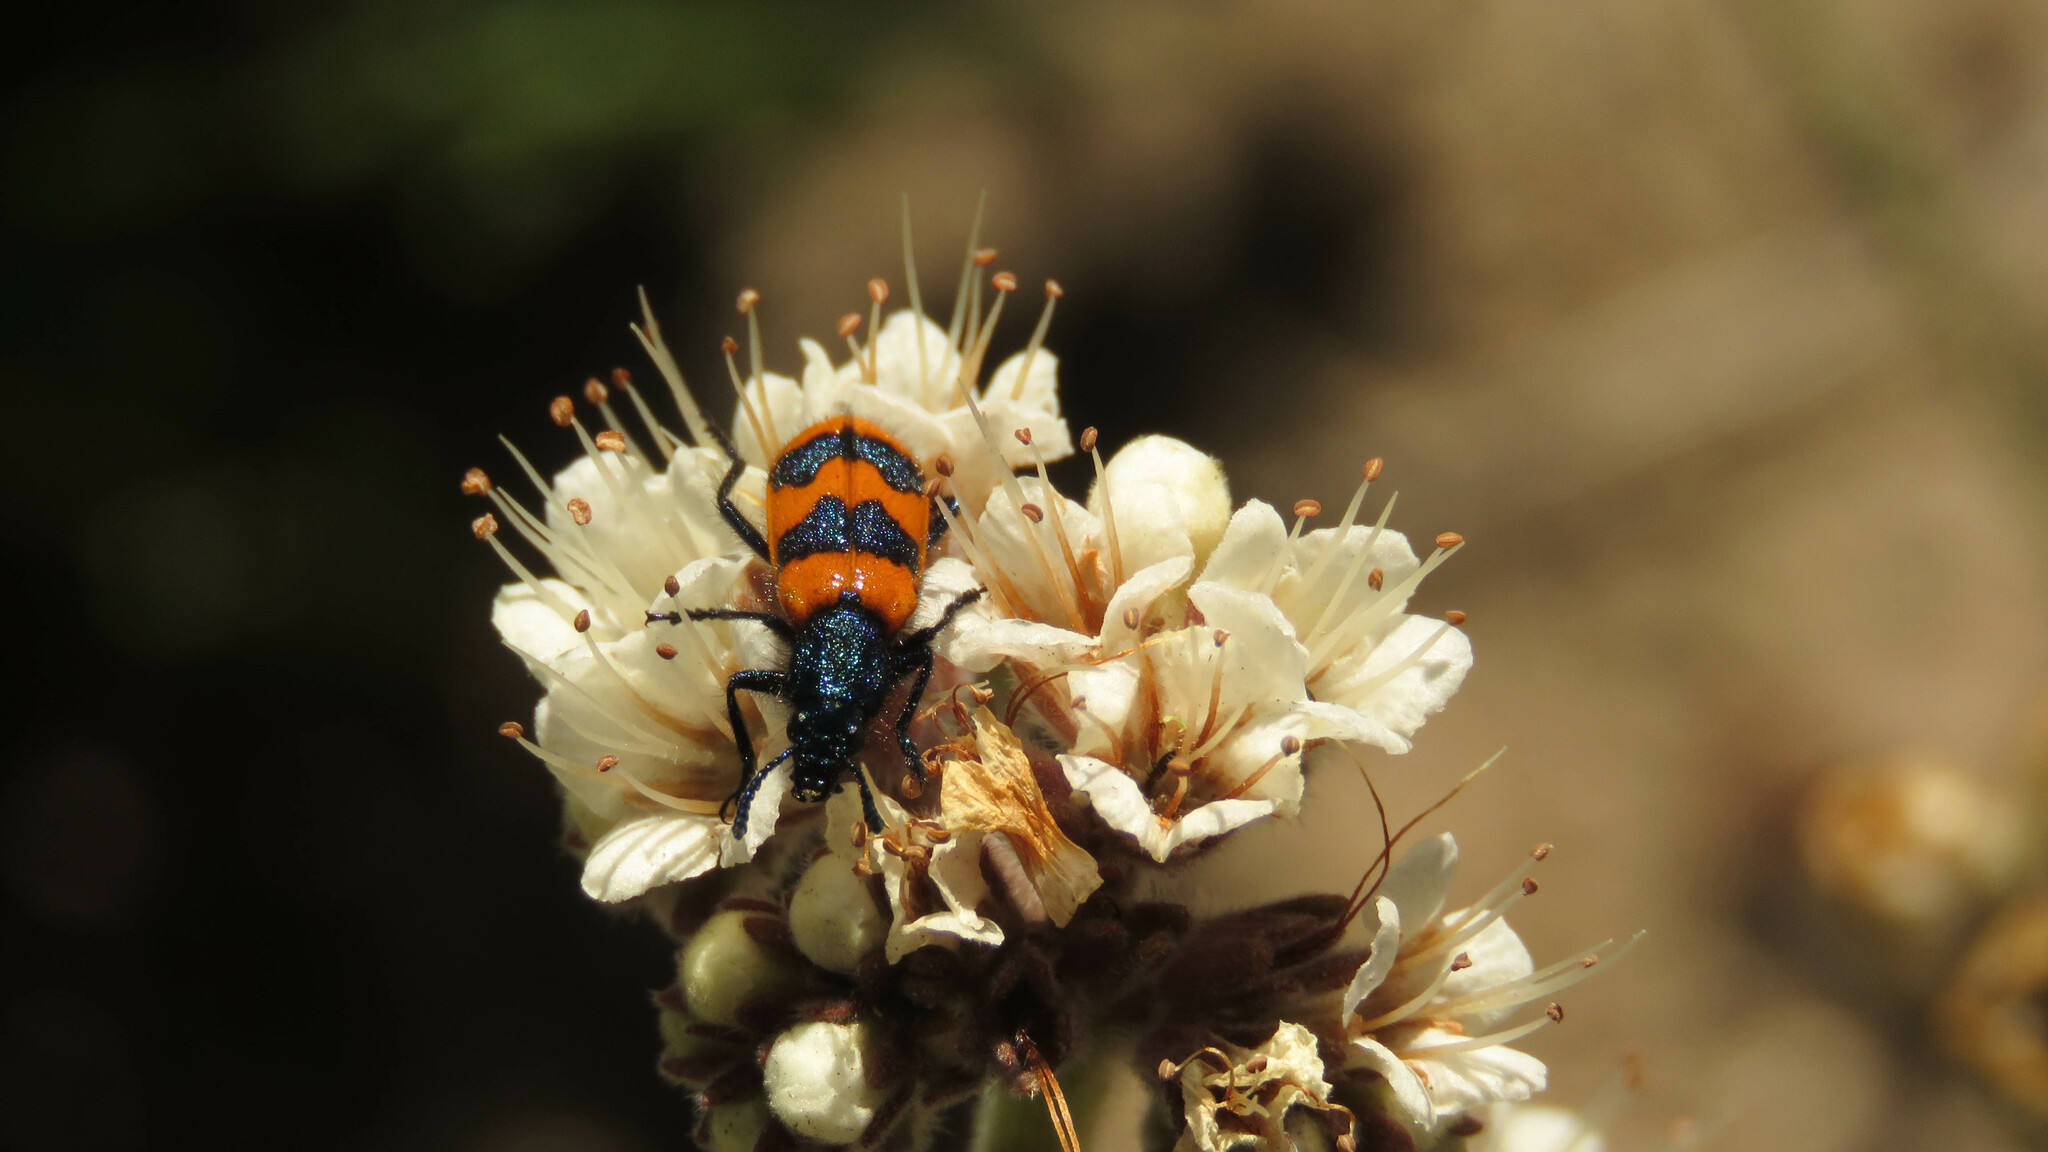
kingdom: Animalia
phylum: Arthropoda
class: Insecta
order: Coleoptera
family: Cleridae
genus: Calendyma
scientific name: Calendyma
